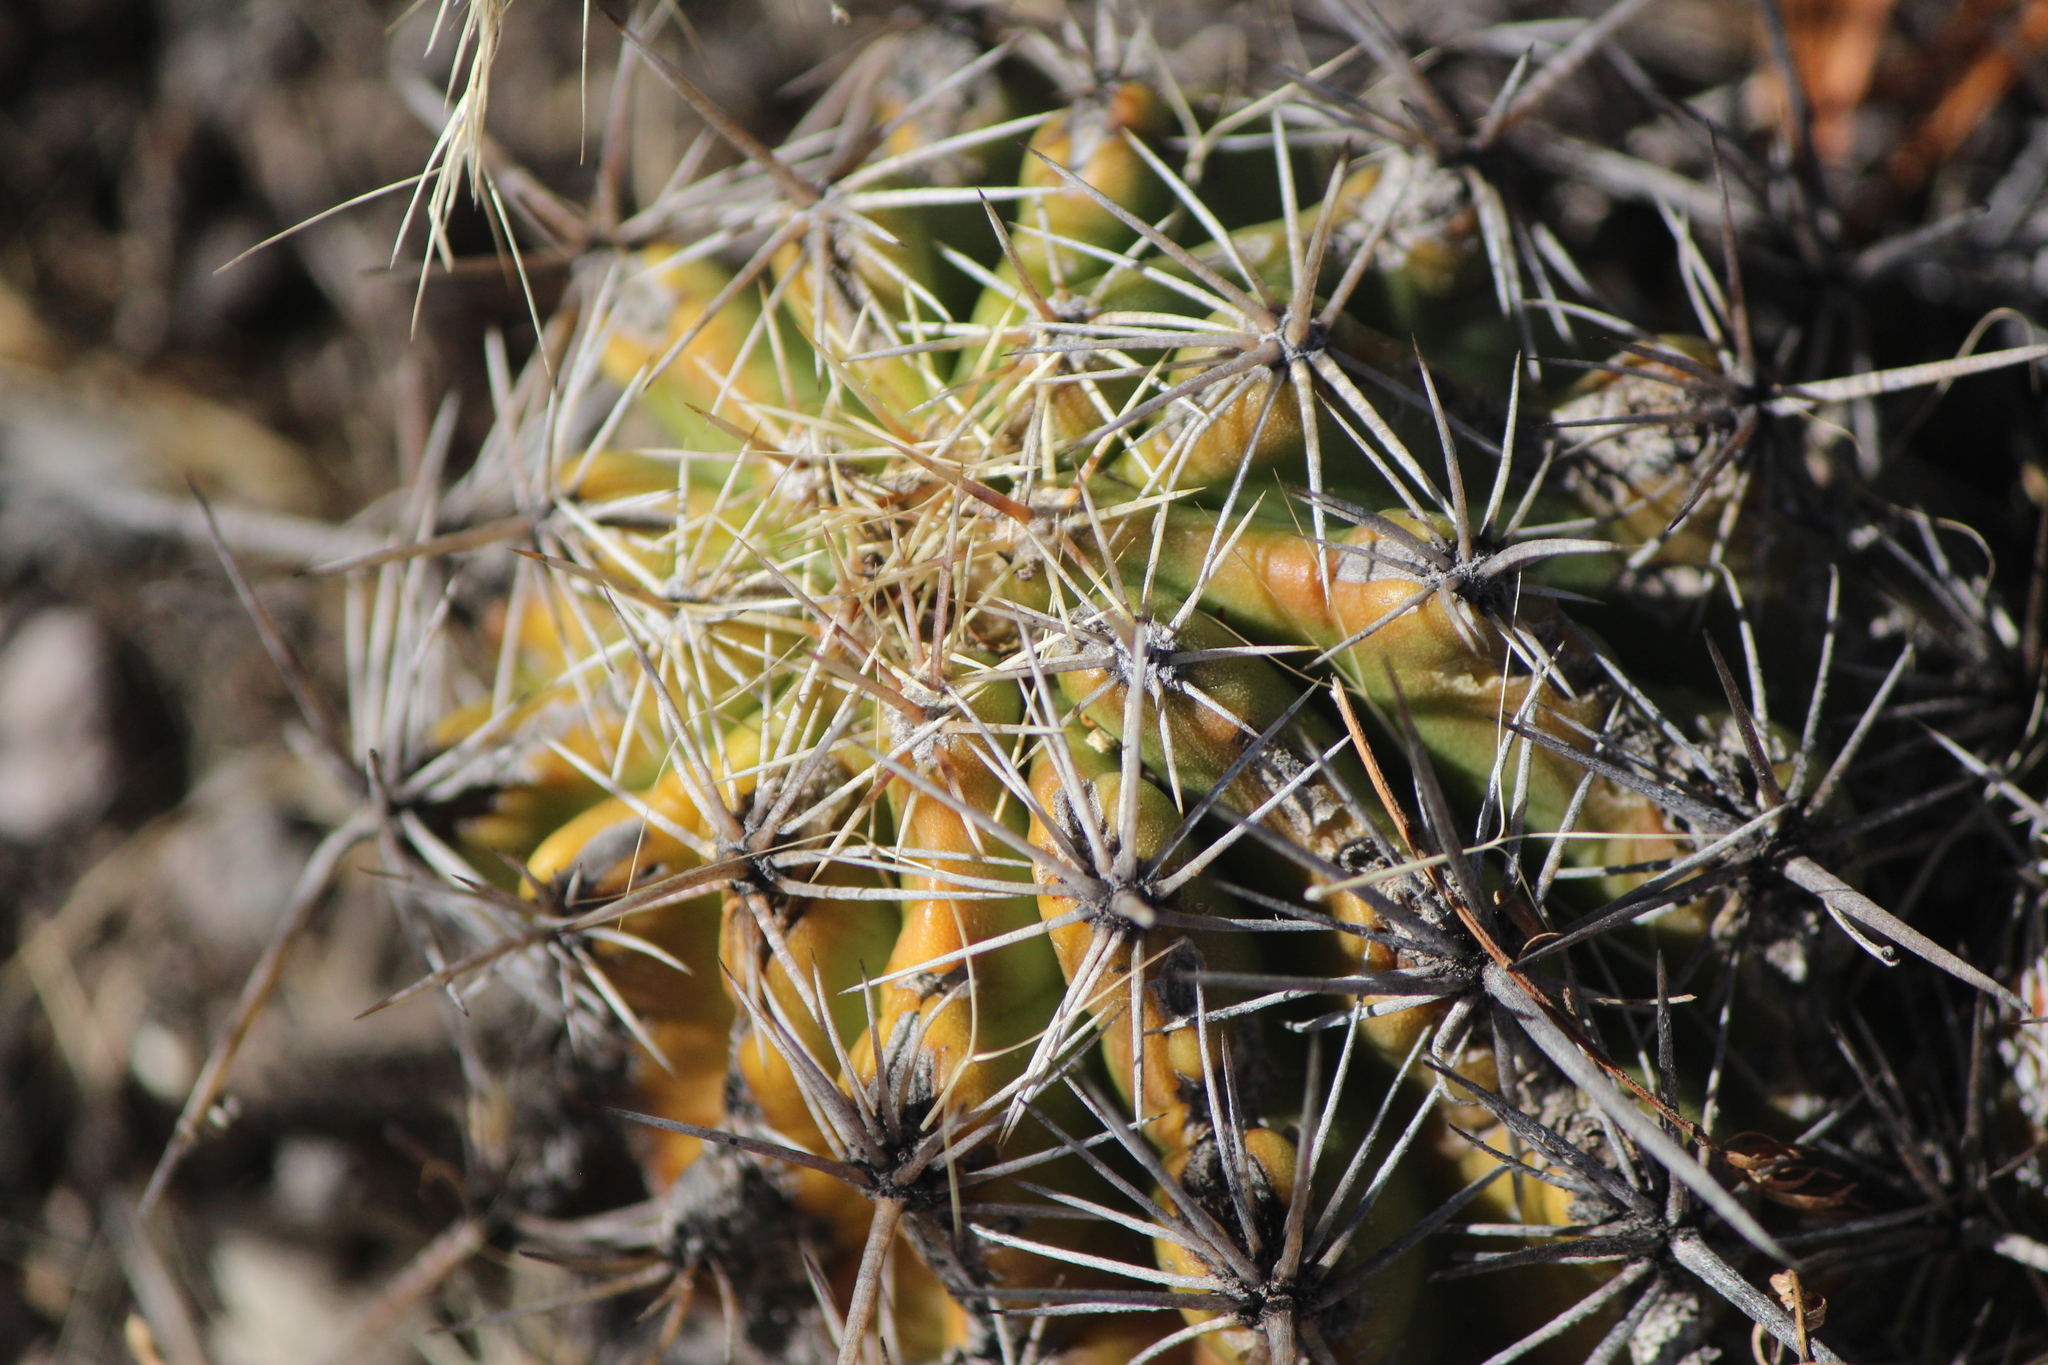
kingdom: Plantae
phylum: Tracheophyta
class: Magnoliopsida
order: Caryophyllales
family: Cactaceae
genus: Thelocactus
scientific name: Thelocactus leucacanthus
